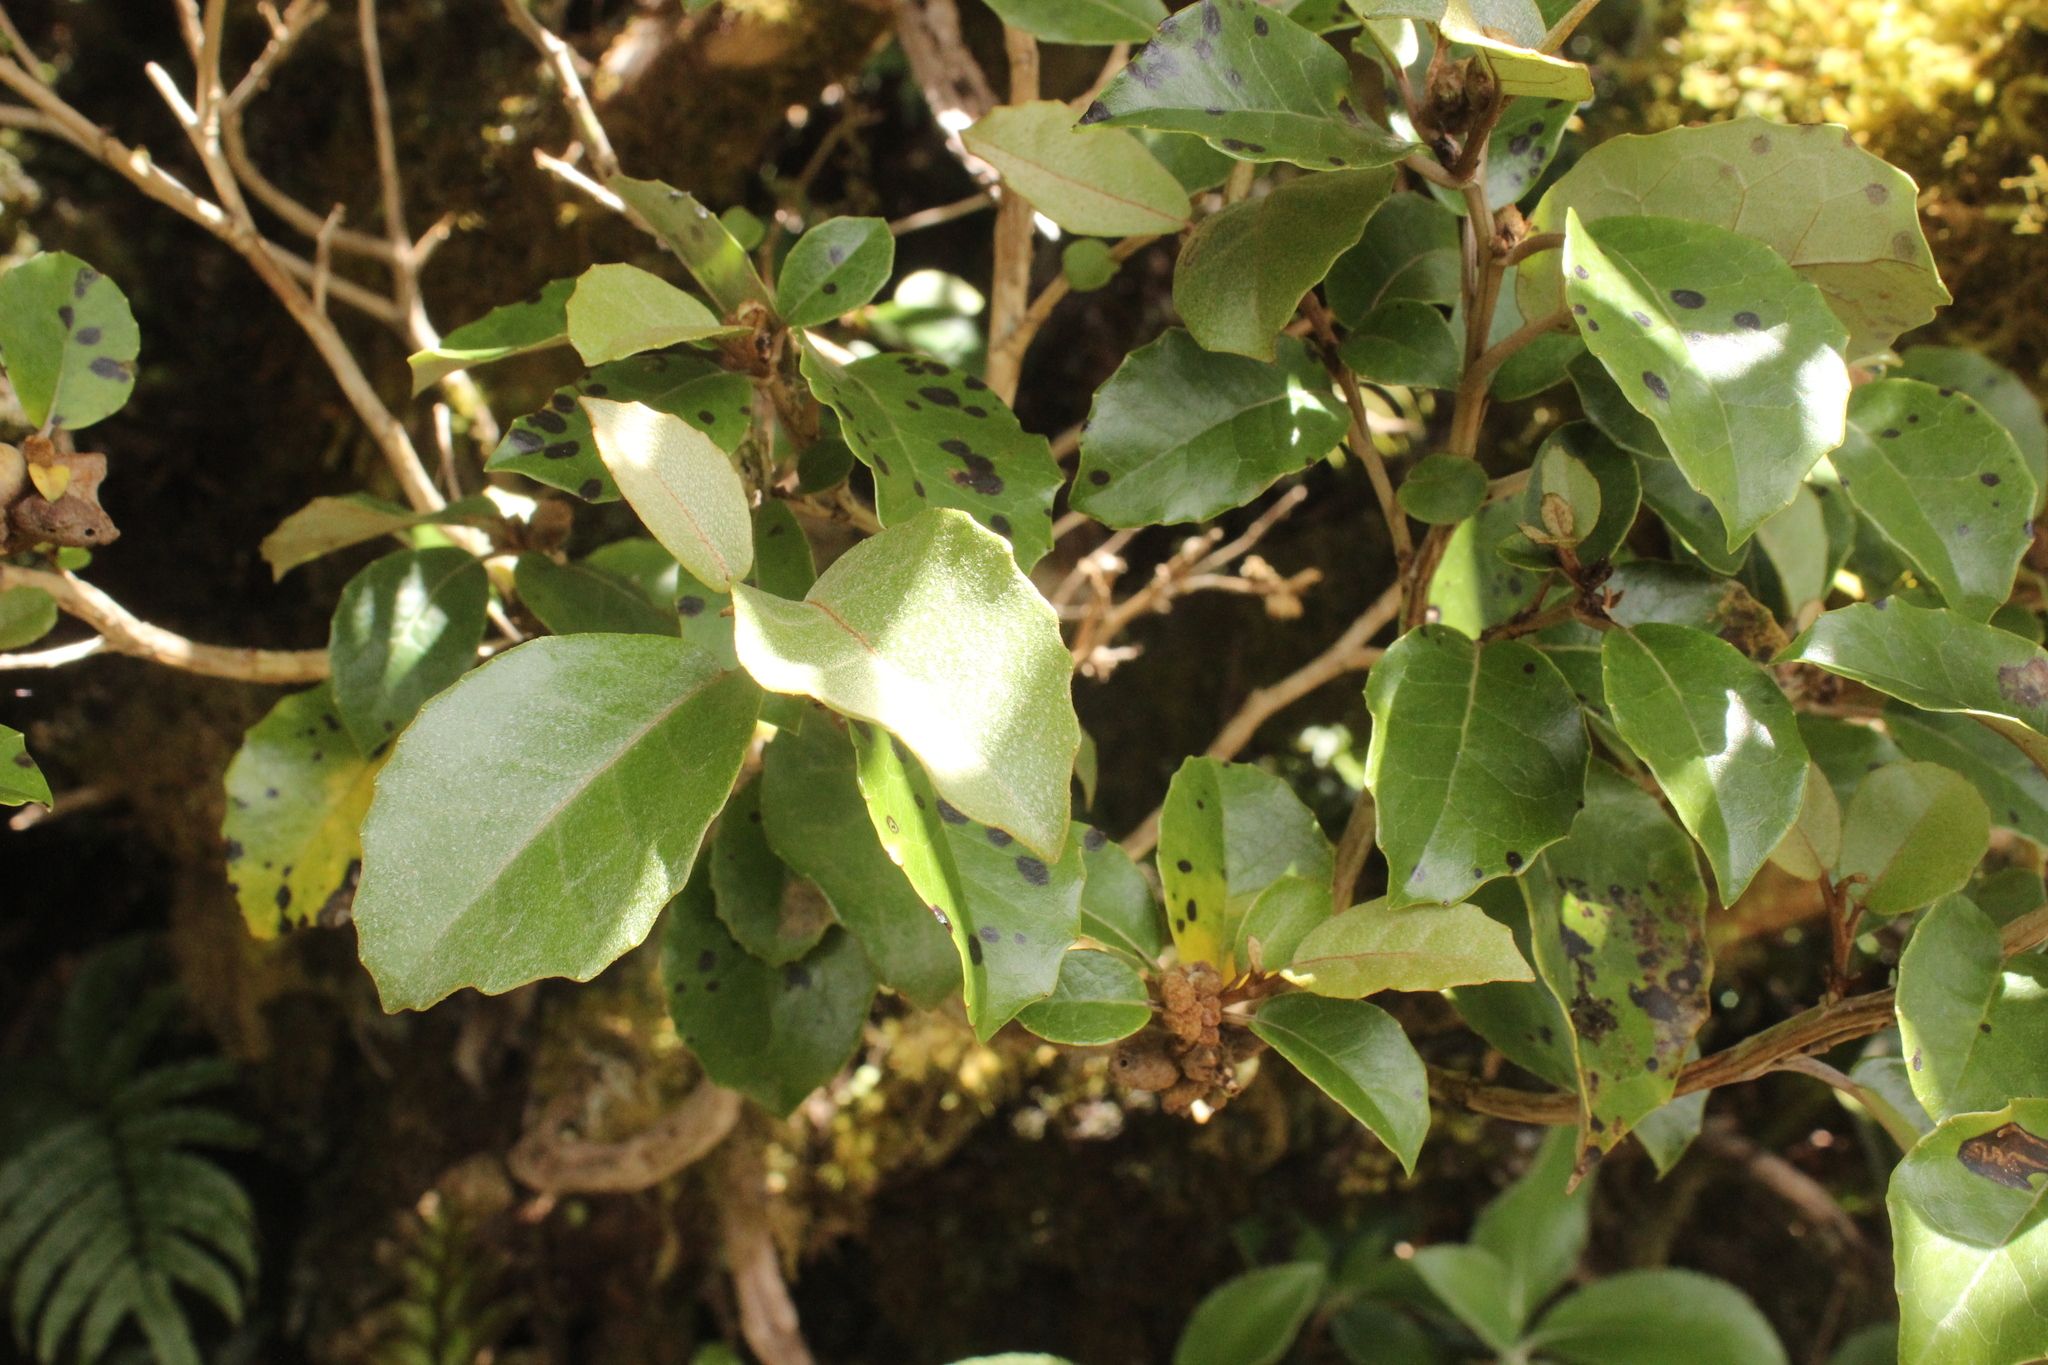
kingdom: Plantae
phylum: Tracheophyta
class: Magnoliopsida
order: Asterales
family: Asteraceae
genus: Olearia
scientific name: Olearia arborescens
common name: Glossy tree daisy
